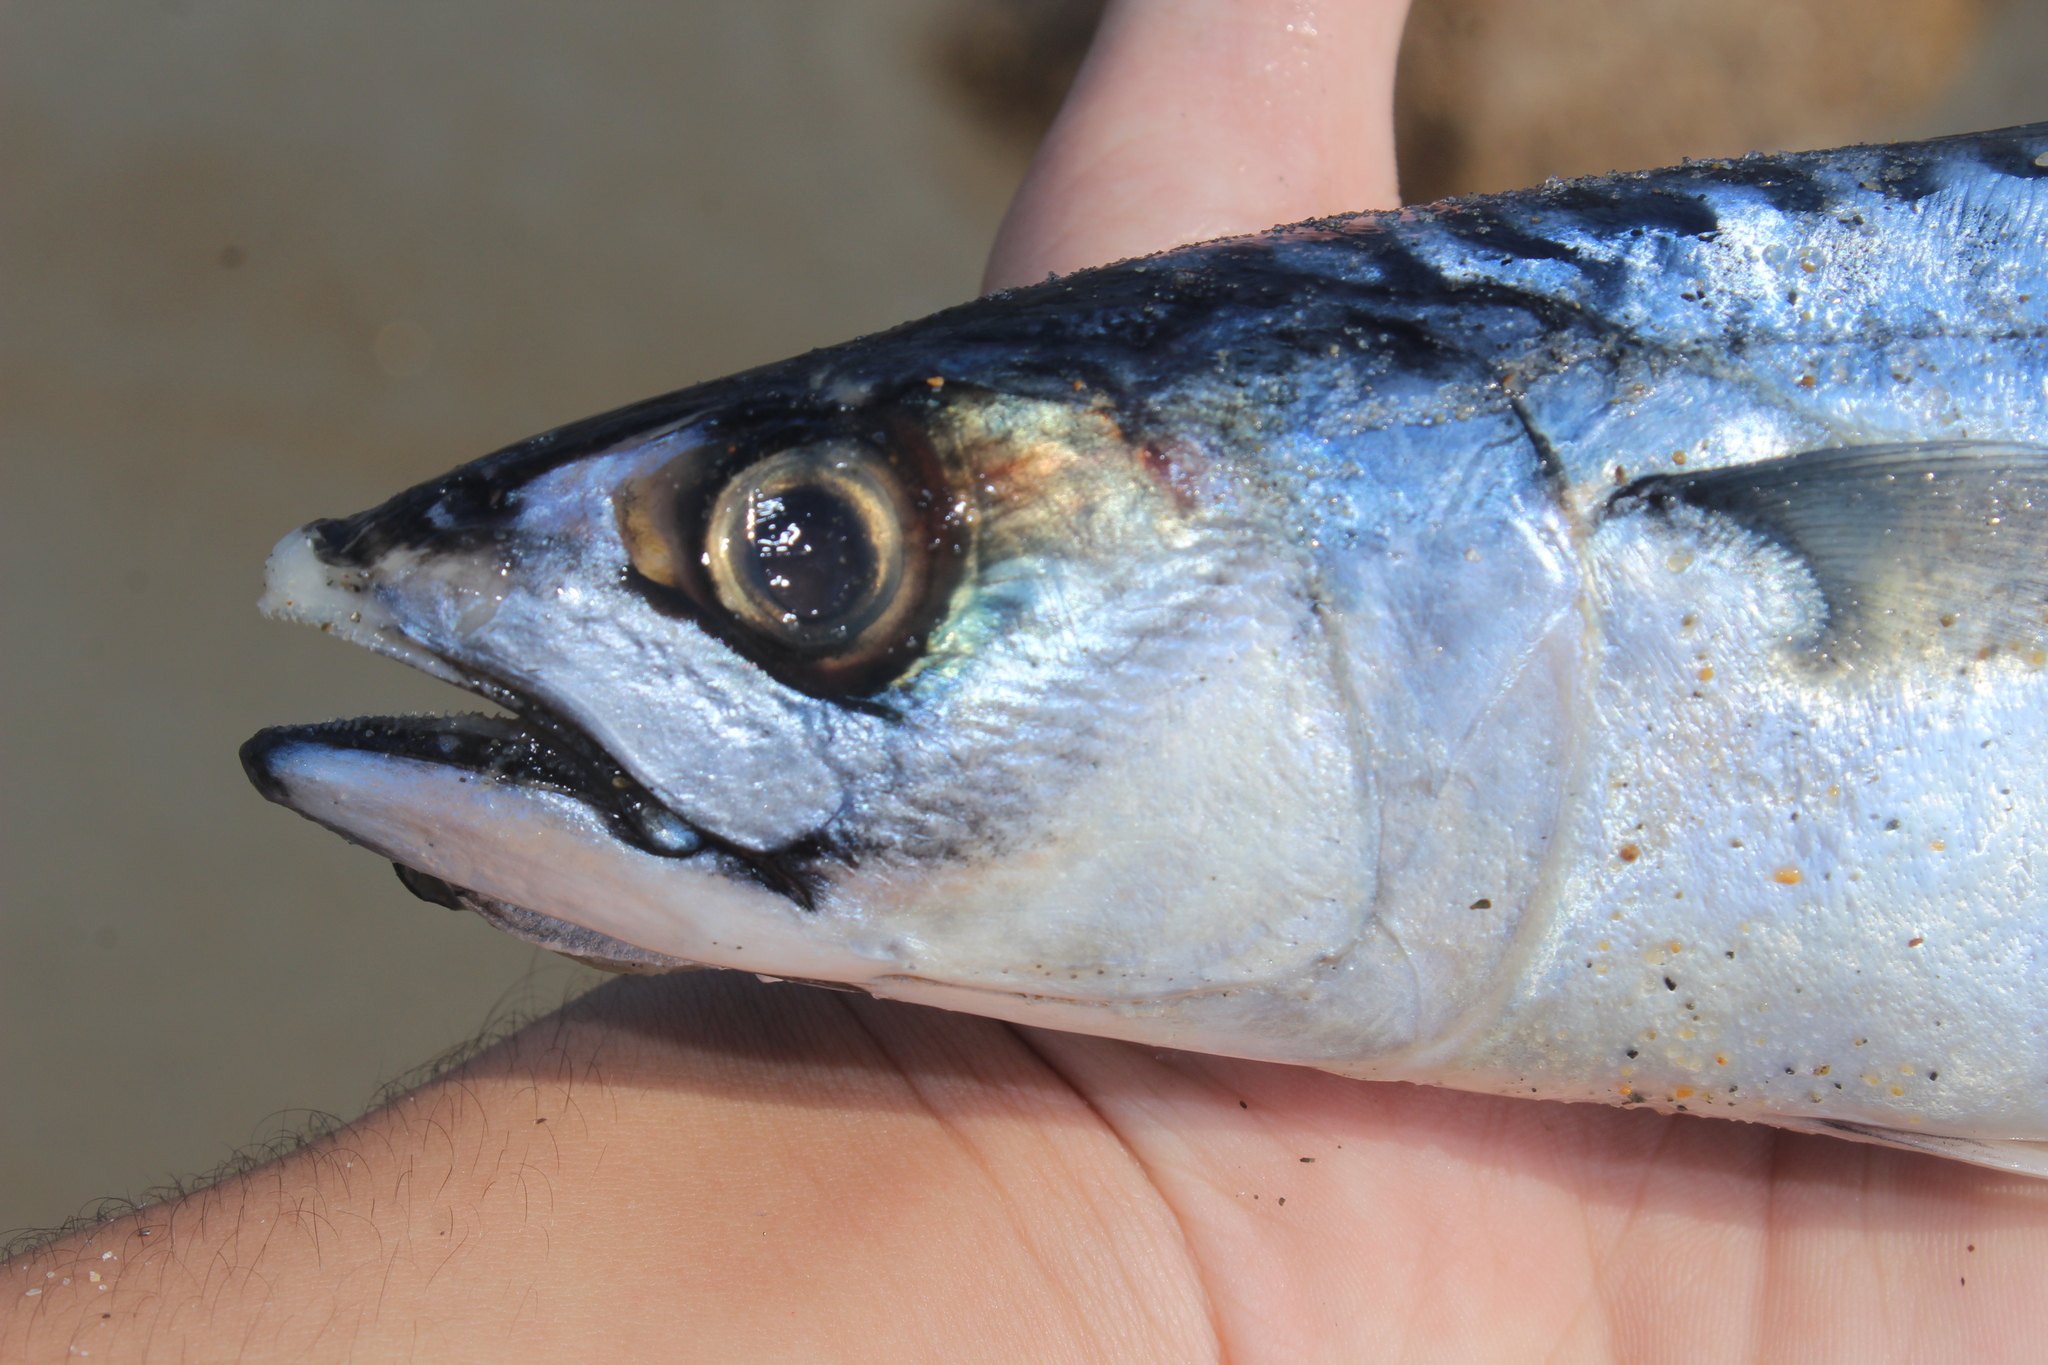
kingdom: Animalia
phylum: Chordata
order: Perciformes
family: Scombridae
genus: Scomber
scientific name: Scomber scombrus
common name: Mackerel
